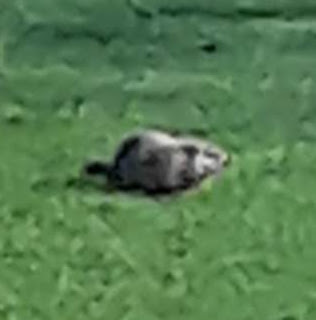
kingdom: Animalia
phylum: Chordata
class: Mammalia
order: Rodentia
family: Sciuridae
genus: Marmota
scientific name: Marmota monax
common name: Groundhog
